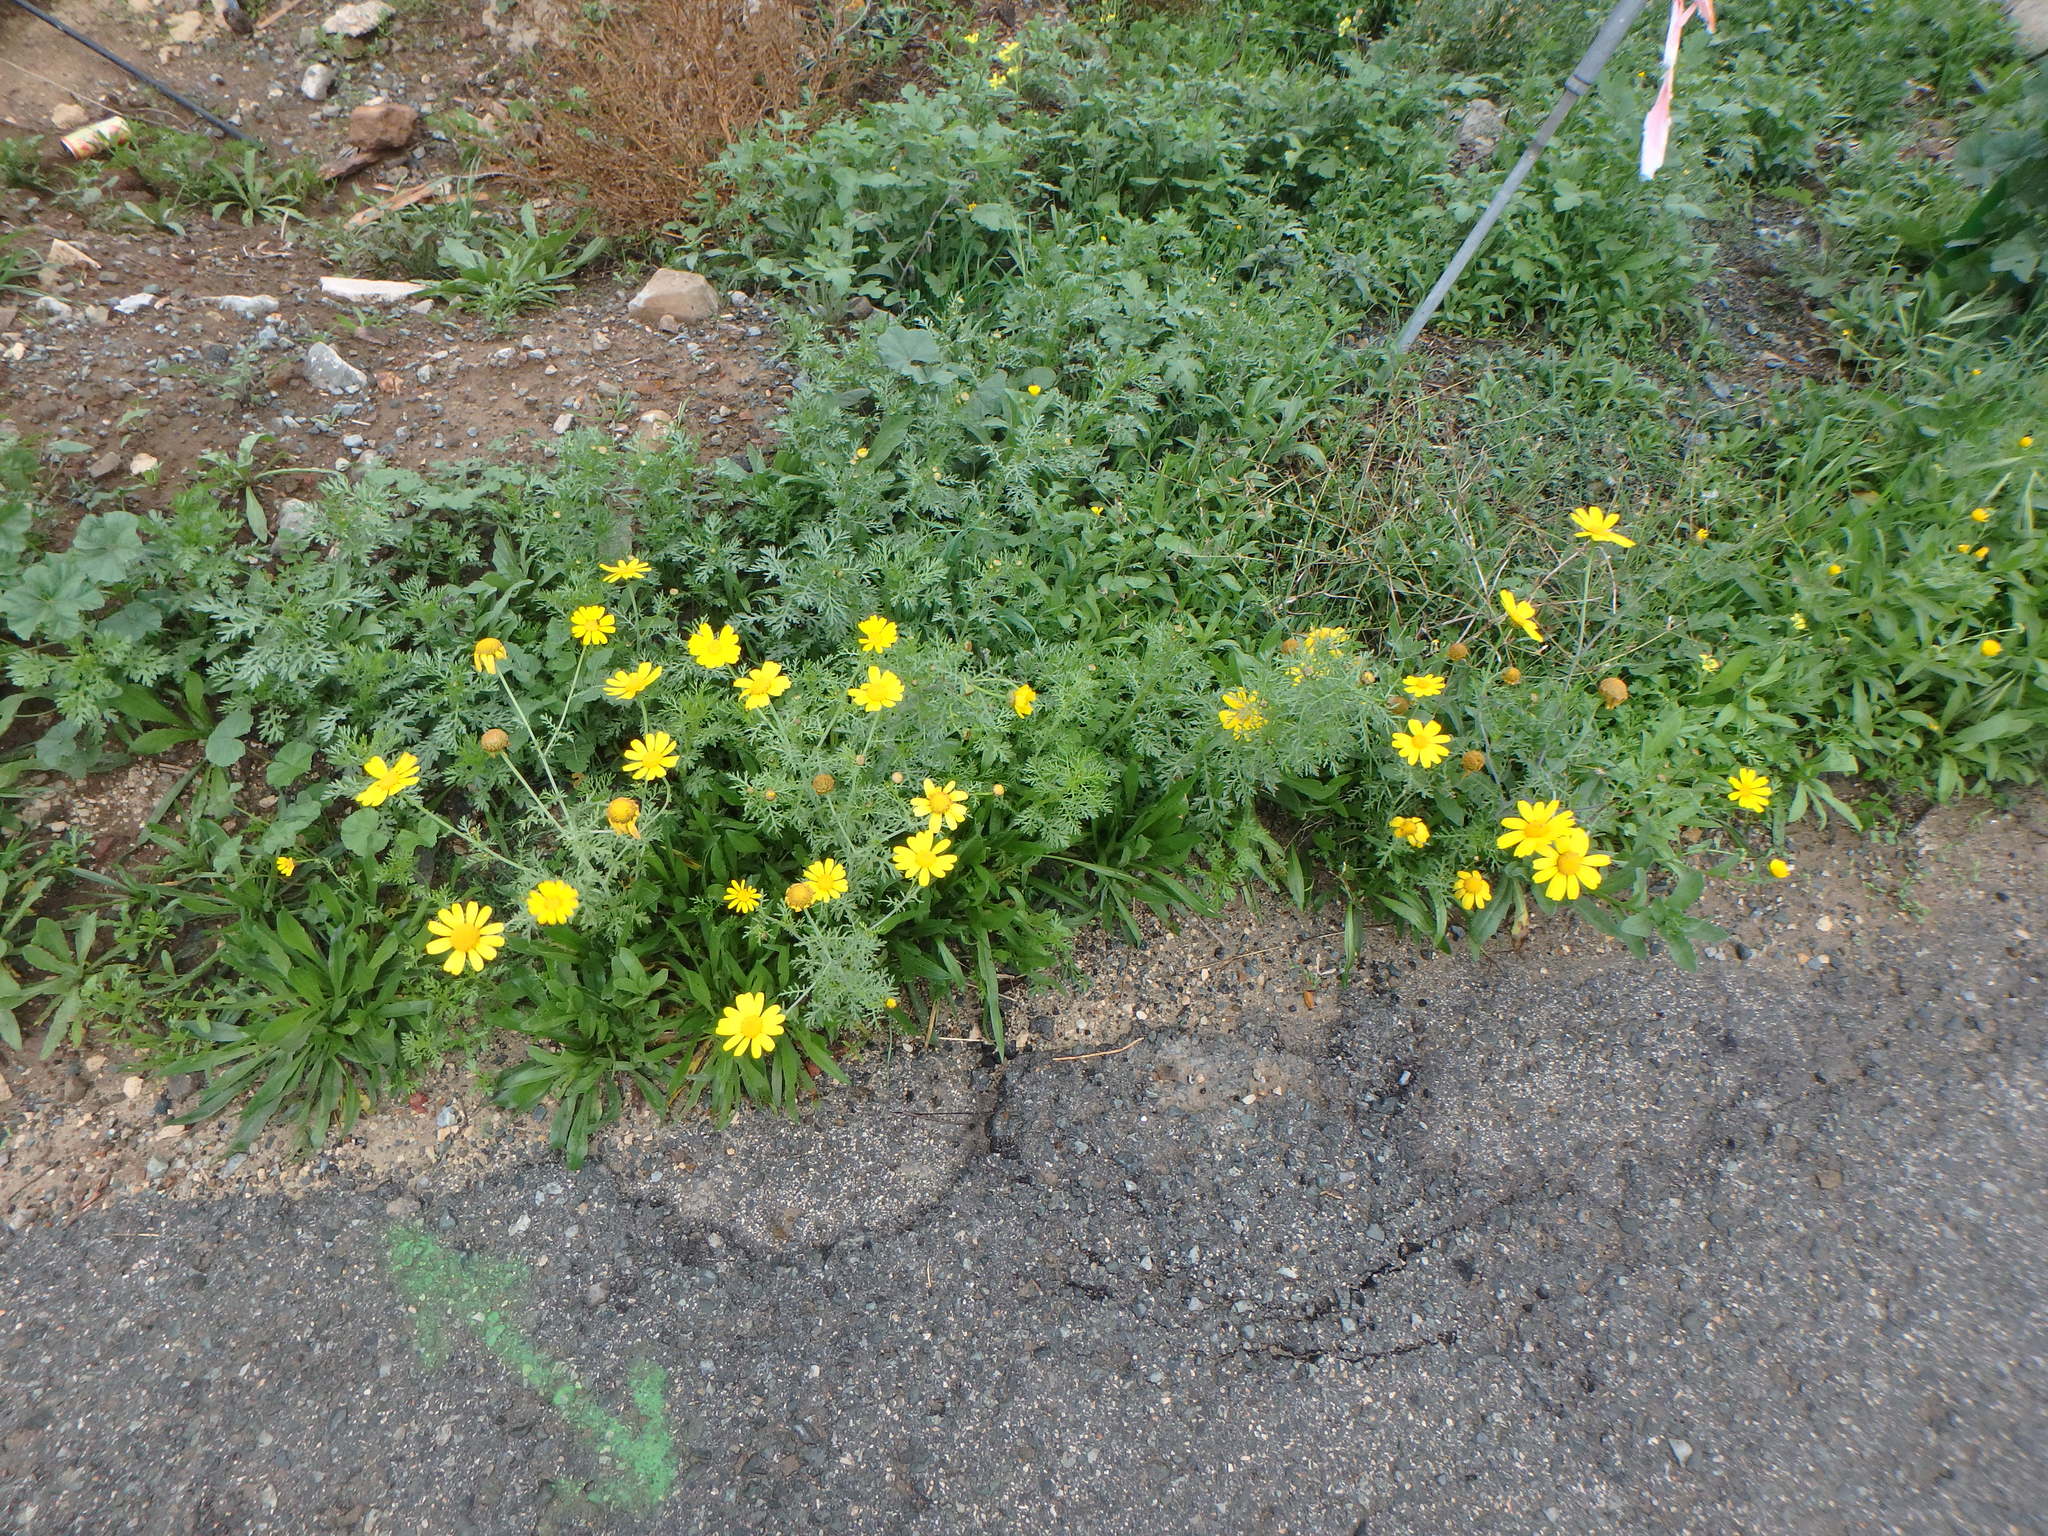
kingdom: Plantae
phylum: Tracheophyta
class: Magnoliopsida
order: Asterales
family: Asteraceae
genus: Glebionis
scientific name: Glebionis coronaria
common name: Crowndaisy
